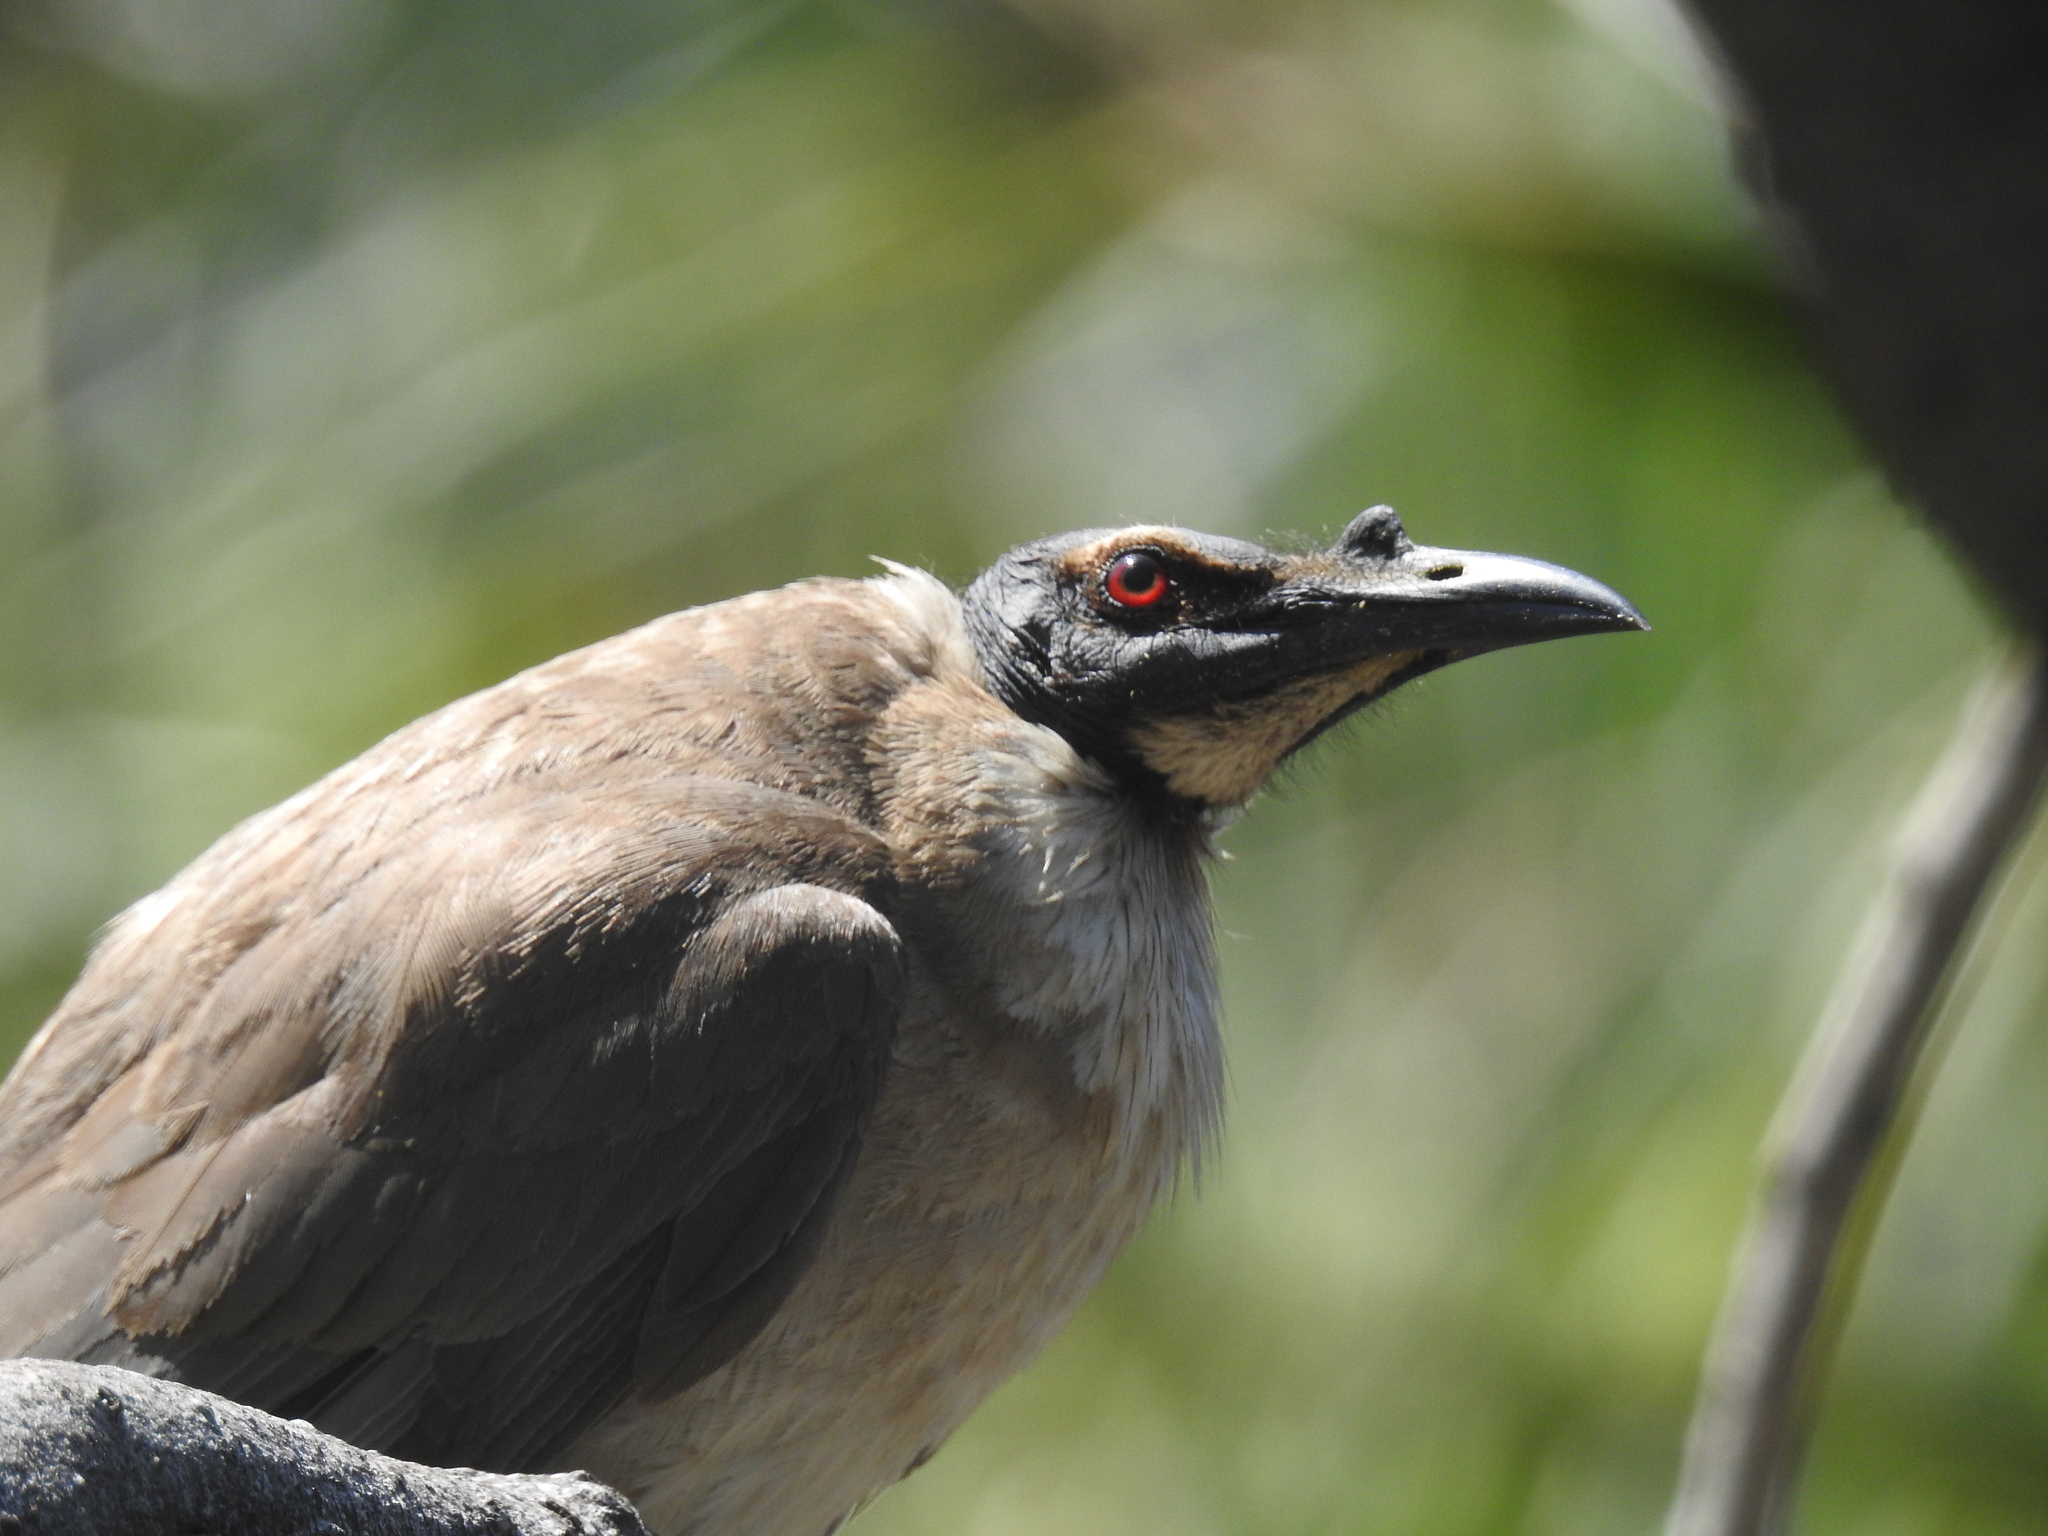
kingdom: Animalia
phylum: Chordata
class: Aves
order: Passeriformes
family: Meliphagidae
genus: Philemon
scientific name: Philemon corniculatus
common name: Noisy friarbird
